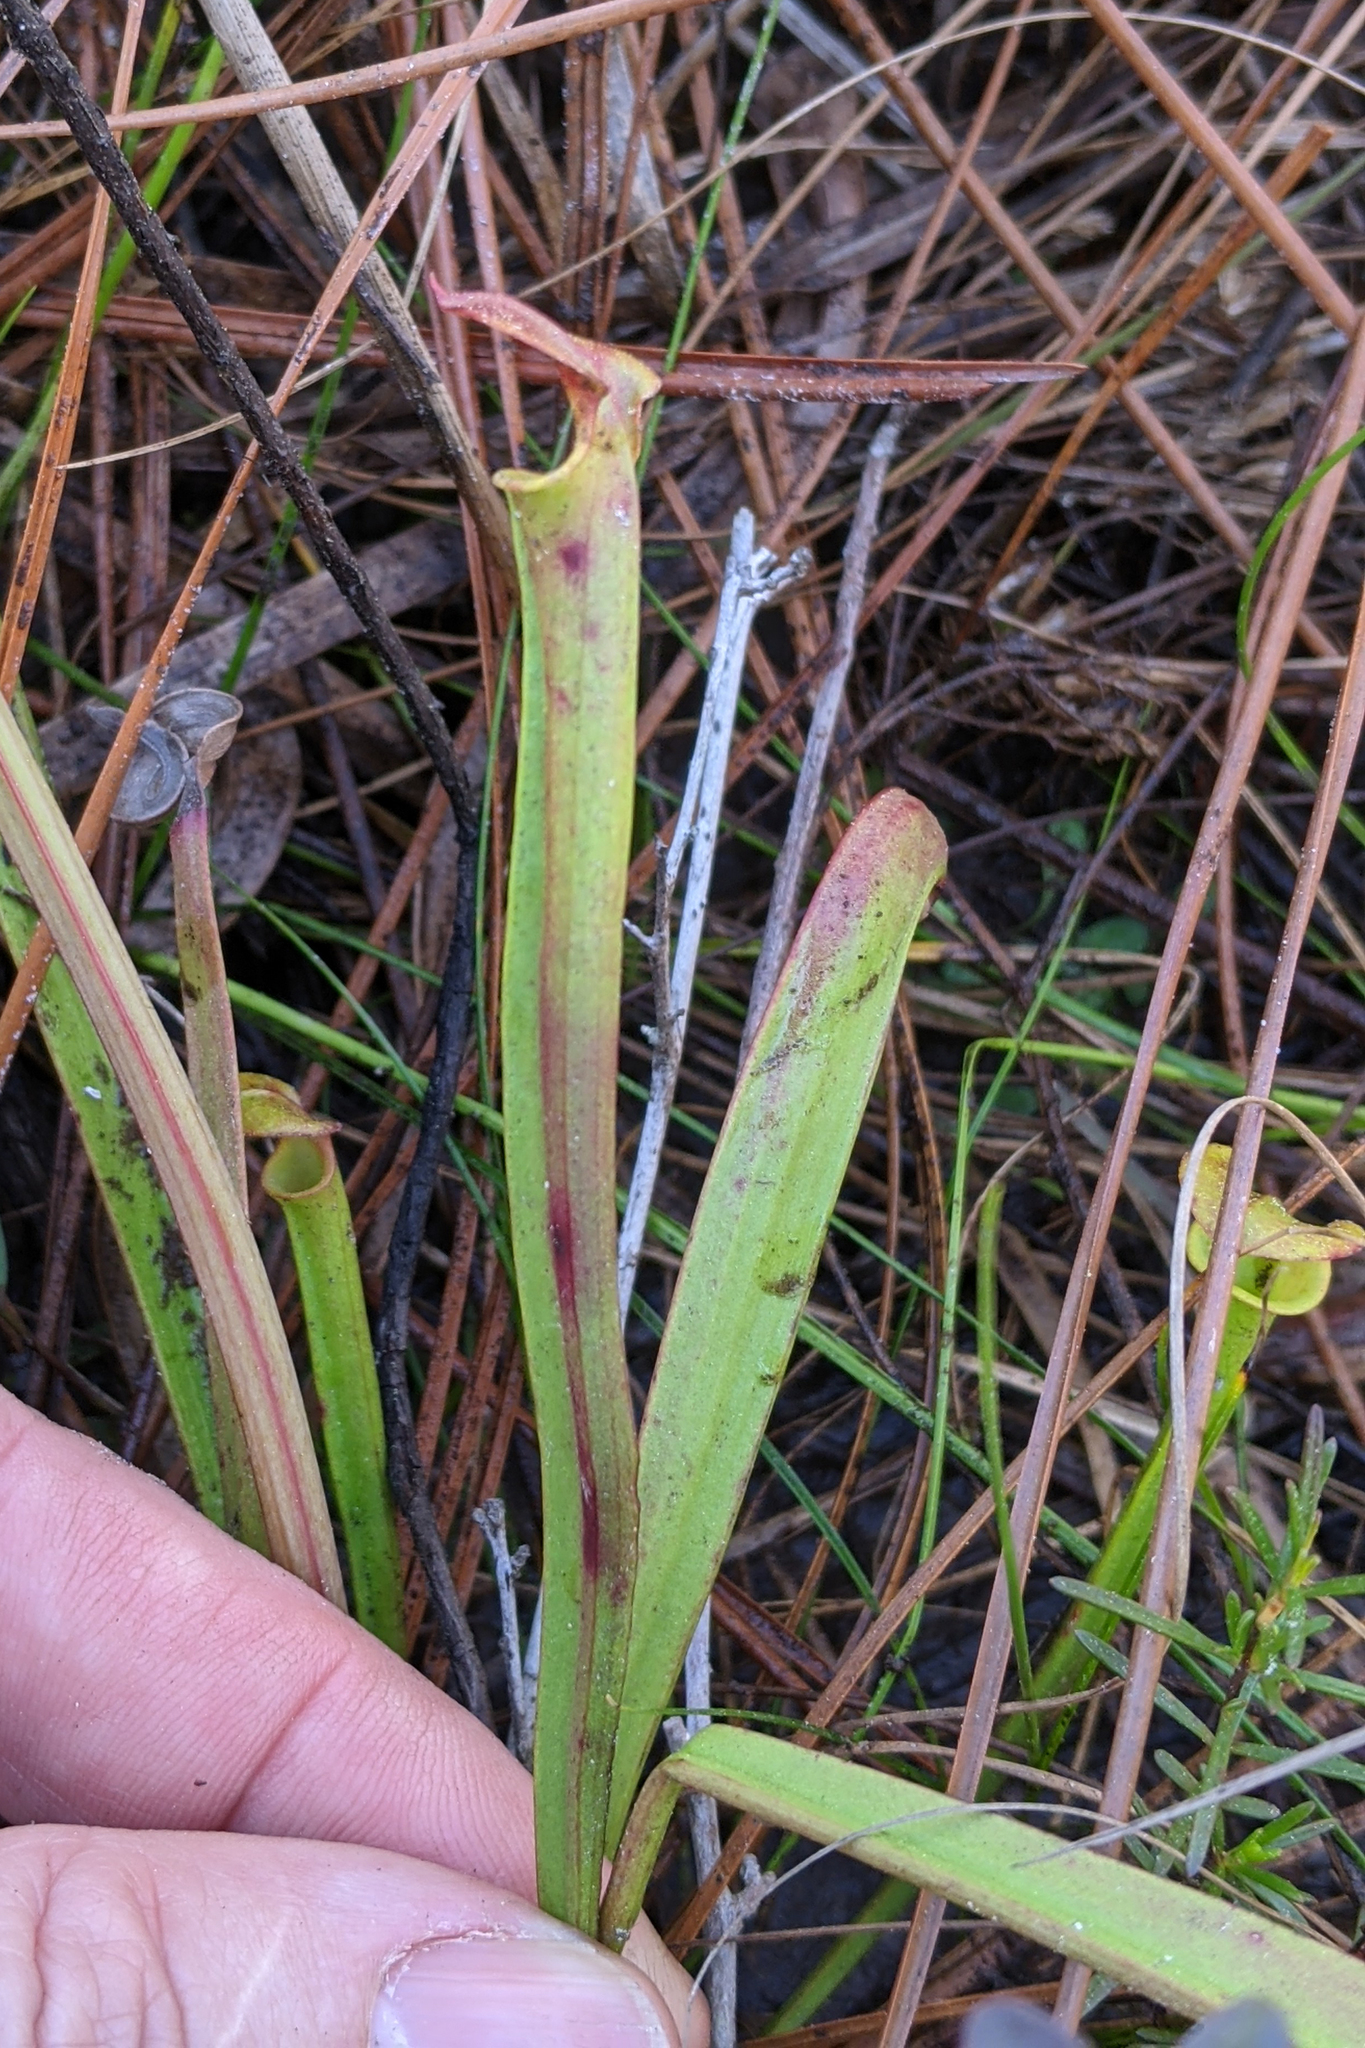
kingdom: Plantae
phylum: Tracheophyta
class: Magnoliopsida
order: Ericales
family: Sarraceniaceae
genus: Sarracenia
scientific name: Sarracenia flava
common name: Trumpets
